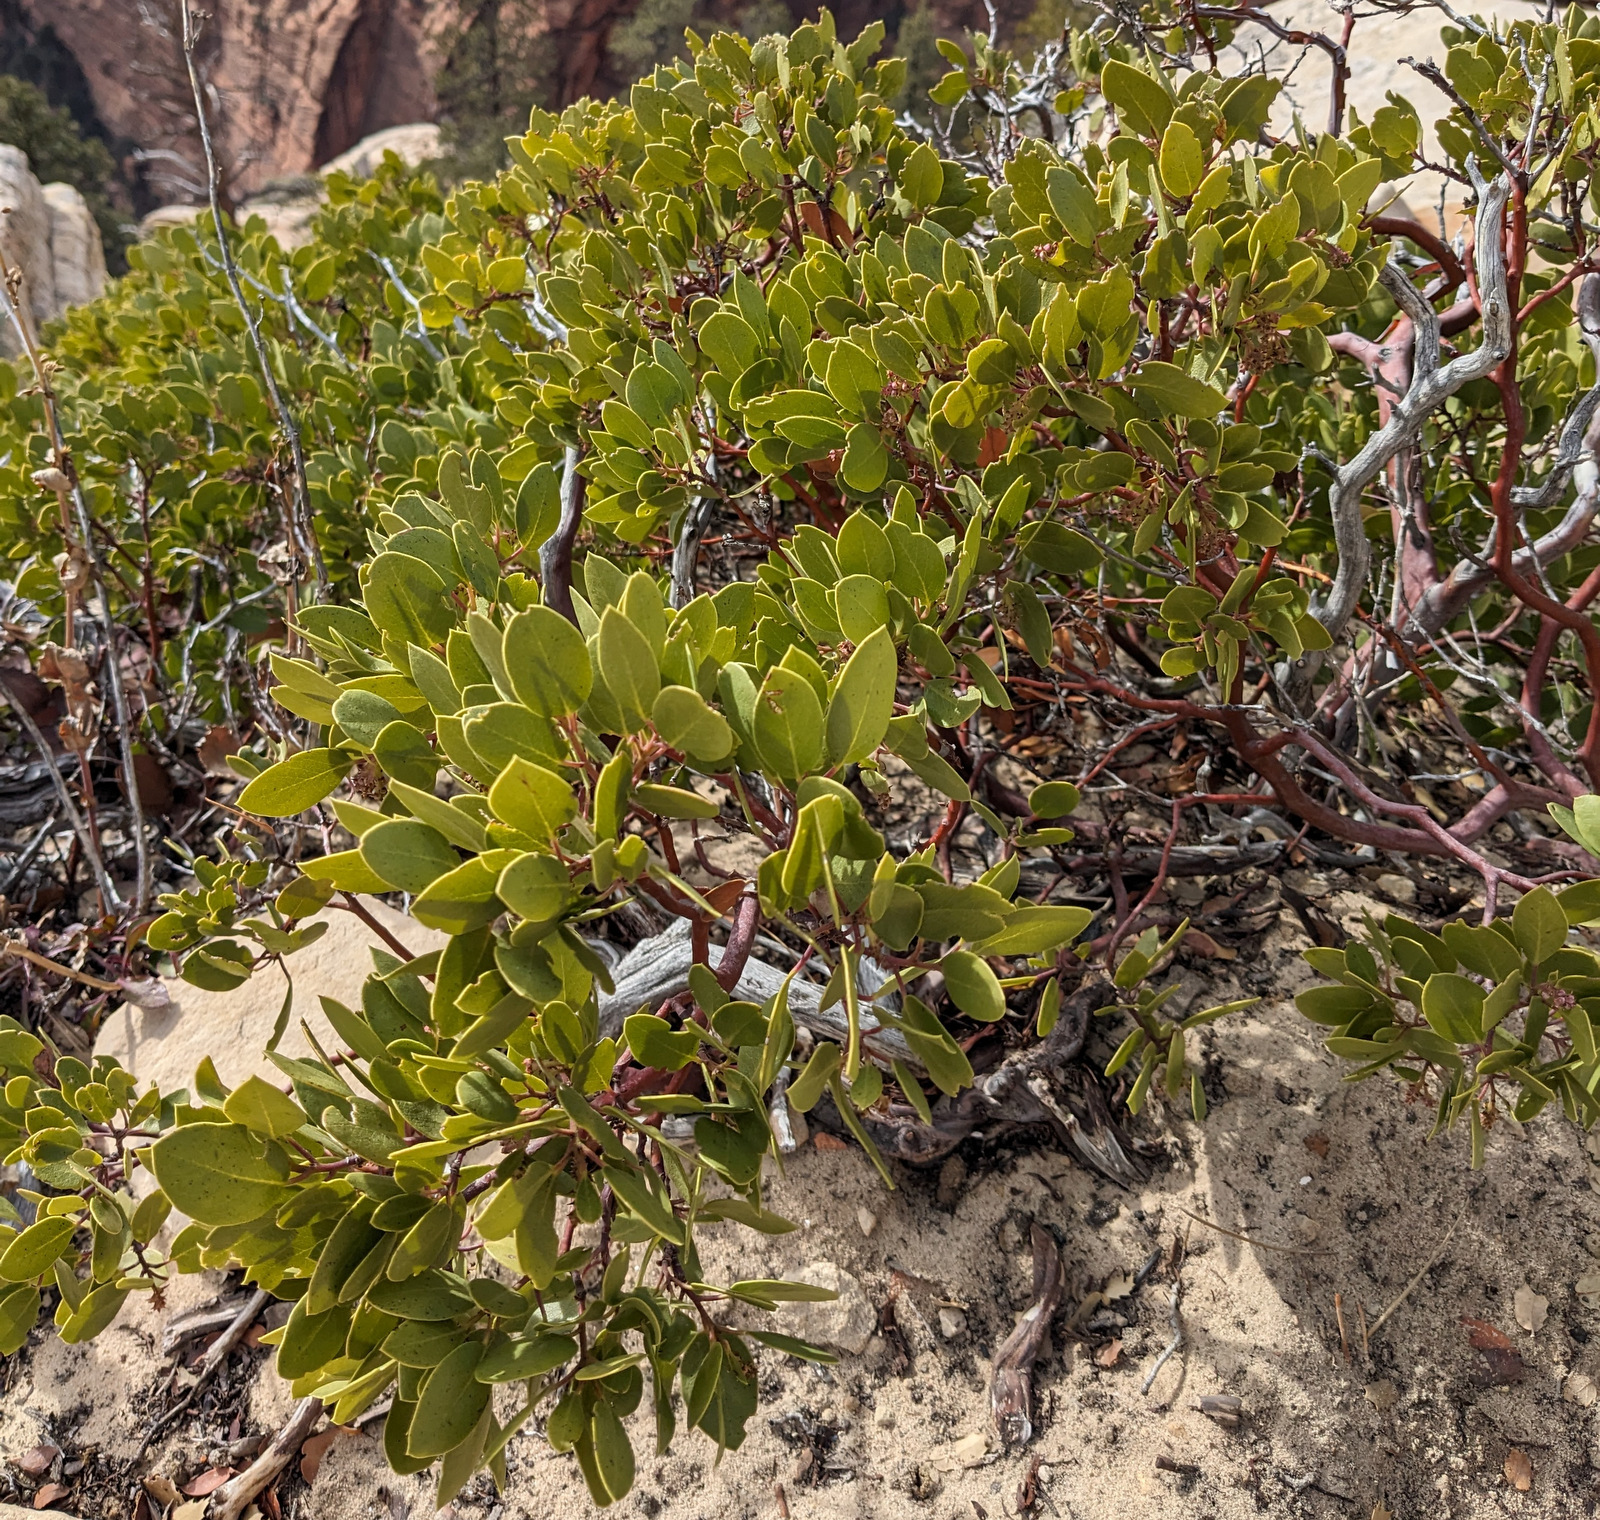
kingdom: Plantae
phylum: Tracheophyta
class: Magnoliopsida
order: Ericales
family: Ericaceae
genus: Arctostaphylos
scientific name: Arctostaphylos patula
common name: Green-leaf manzanita
